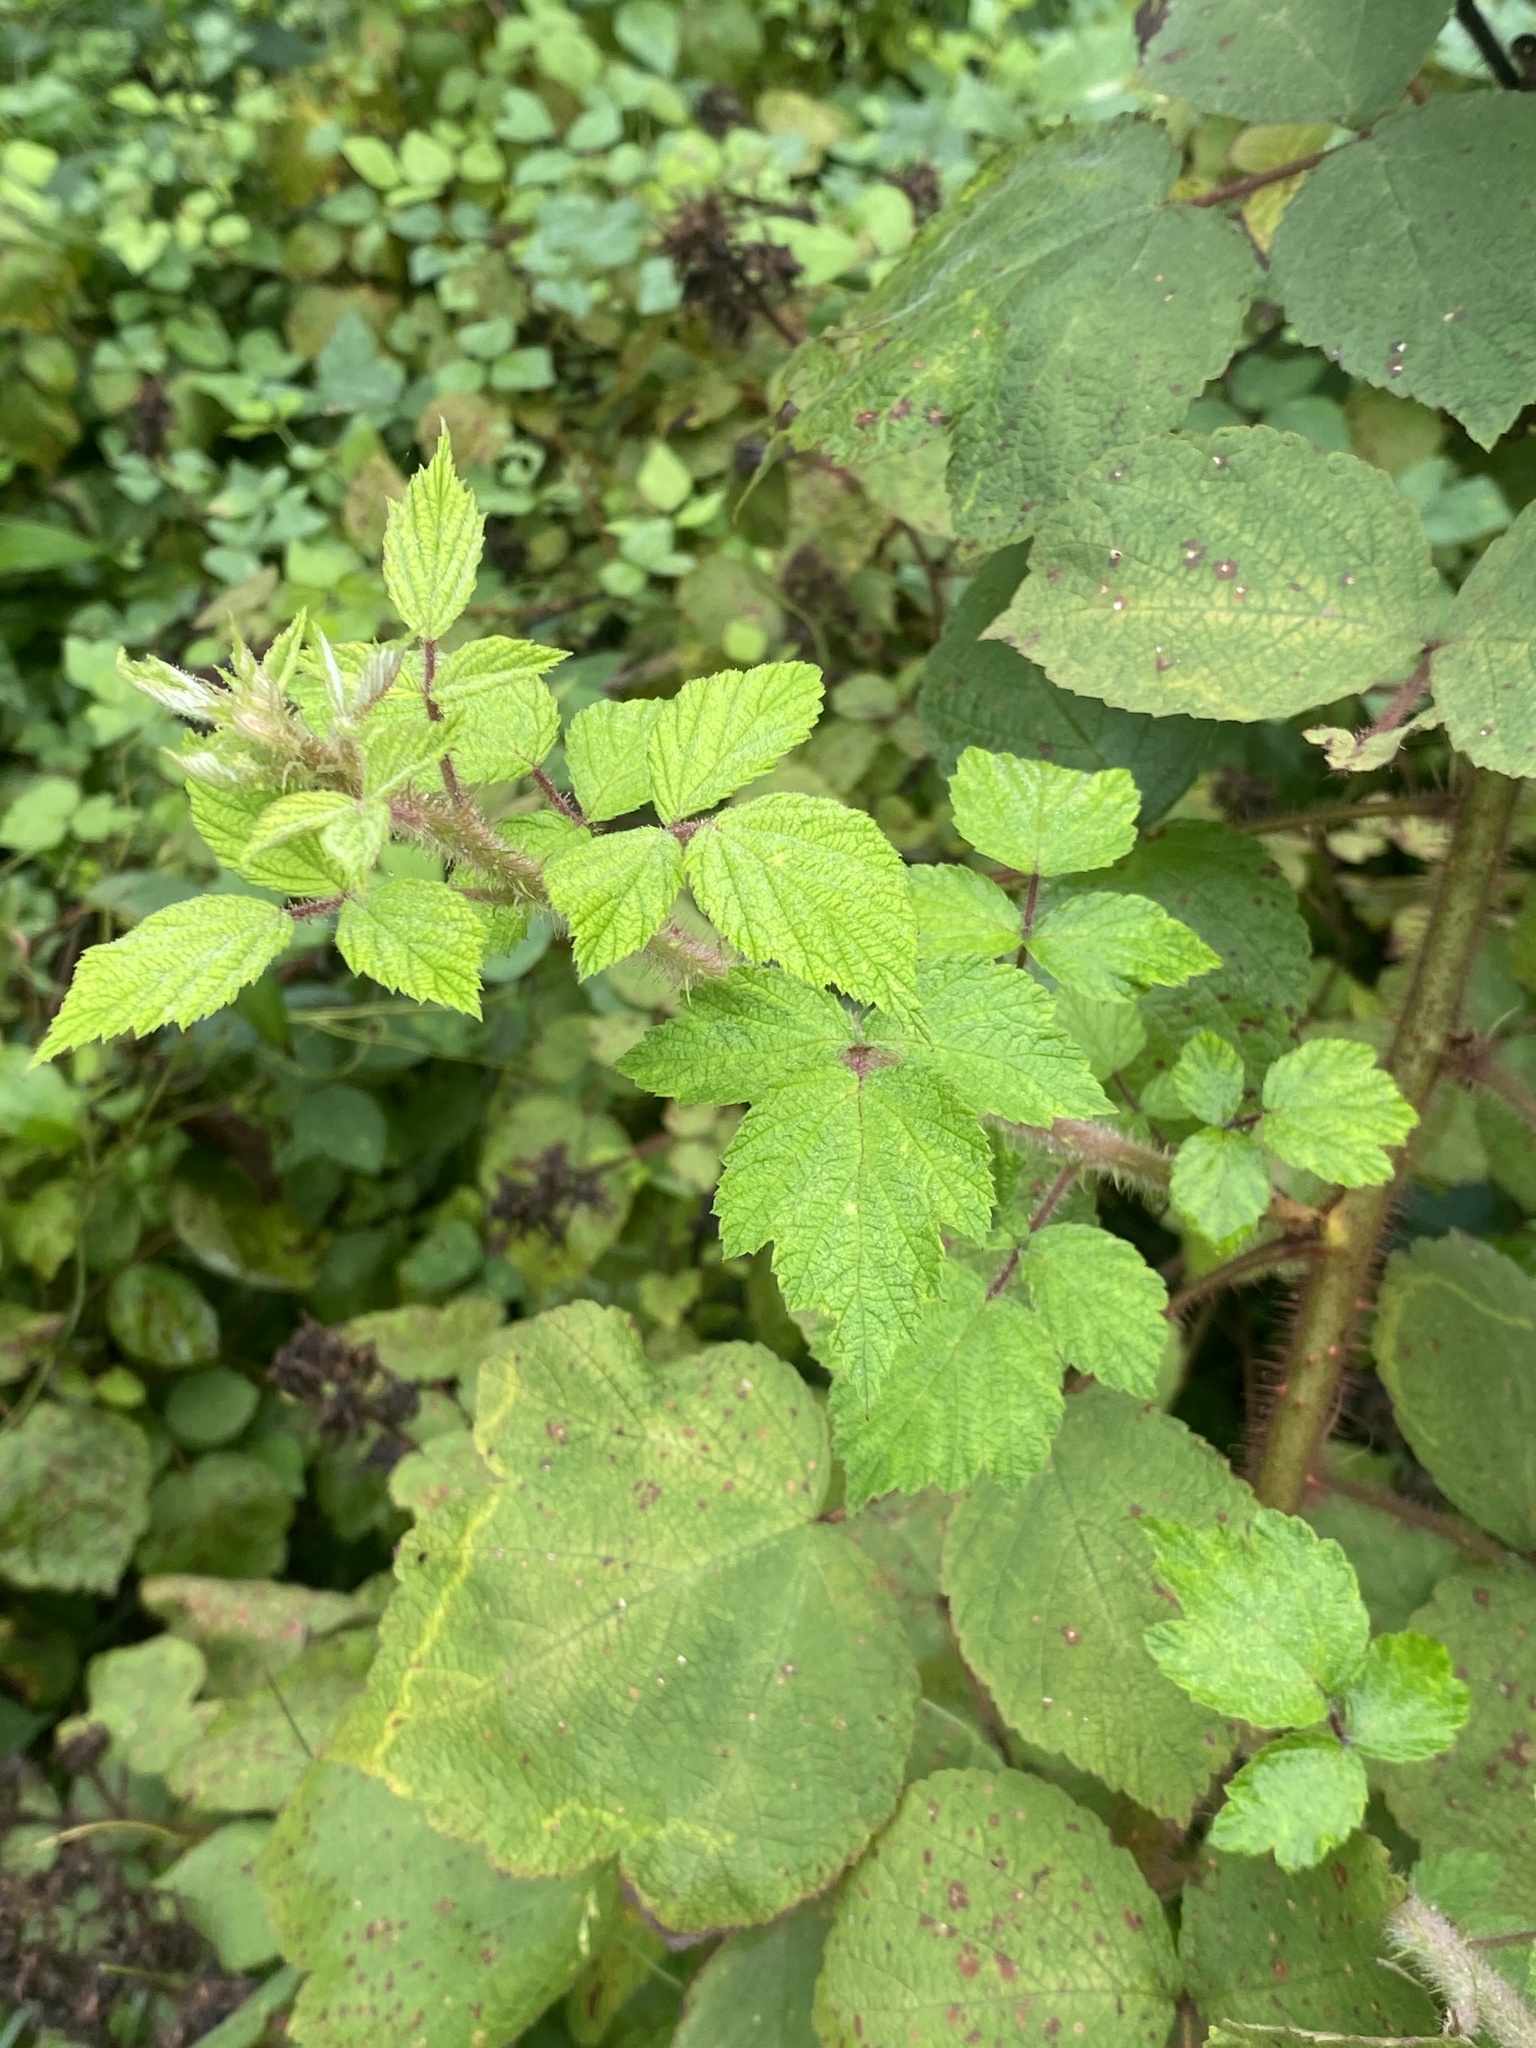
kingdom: Plantae
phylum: Tracheophyta
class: Magnoliopsida
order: Rosales
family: Rosaceae
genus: Rubus
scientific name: Rubus phoenicolasius
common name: Japanese wineberry
